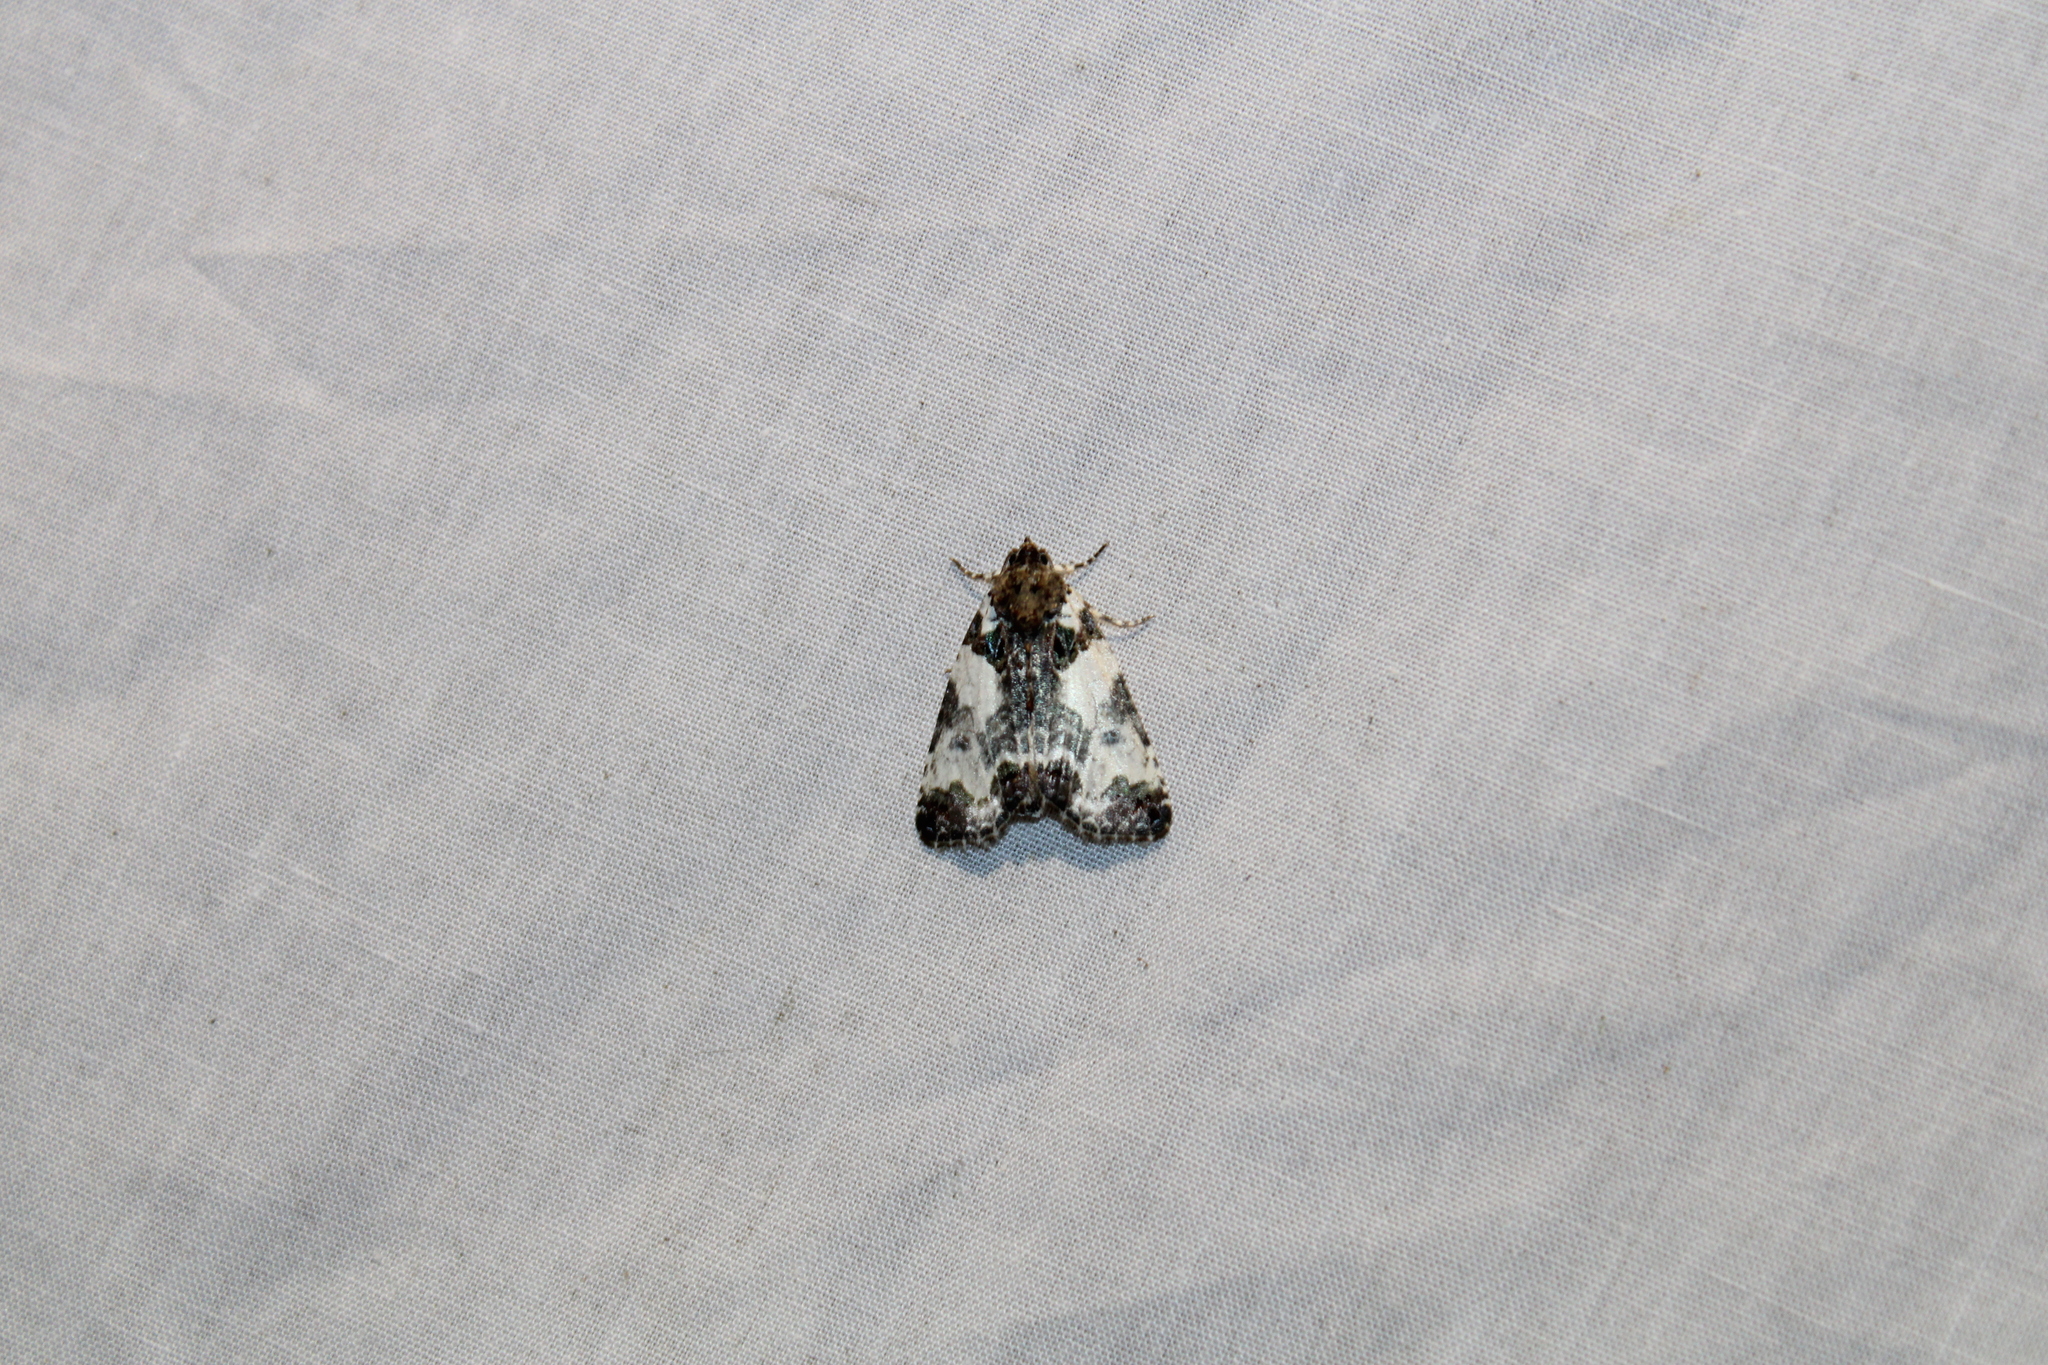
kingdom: Animalia
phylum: Arthropoda
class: Insecta
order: Lepidoptera
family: Noctuidae
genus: Cerma
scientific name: Cerma cerintha
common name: Tufted bird-dropping moth
